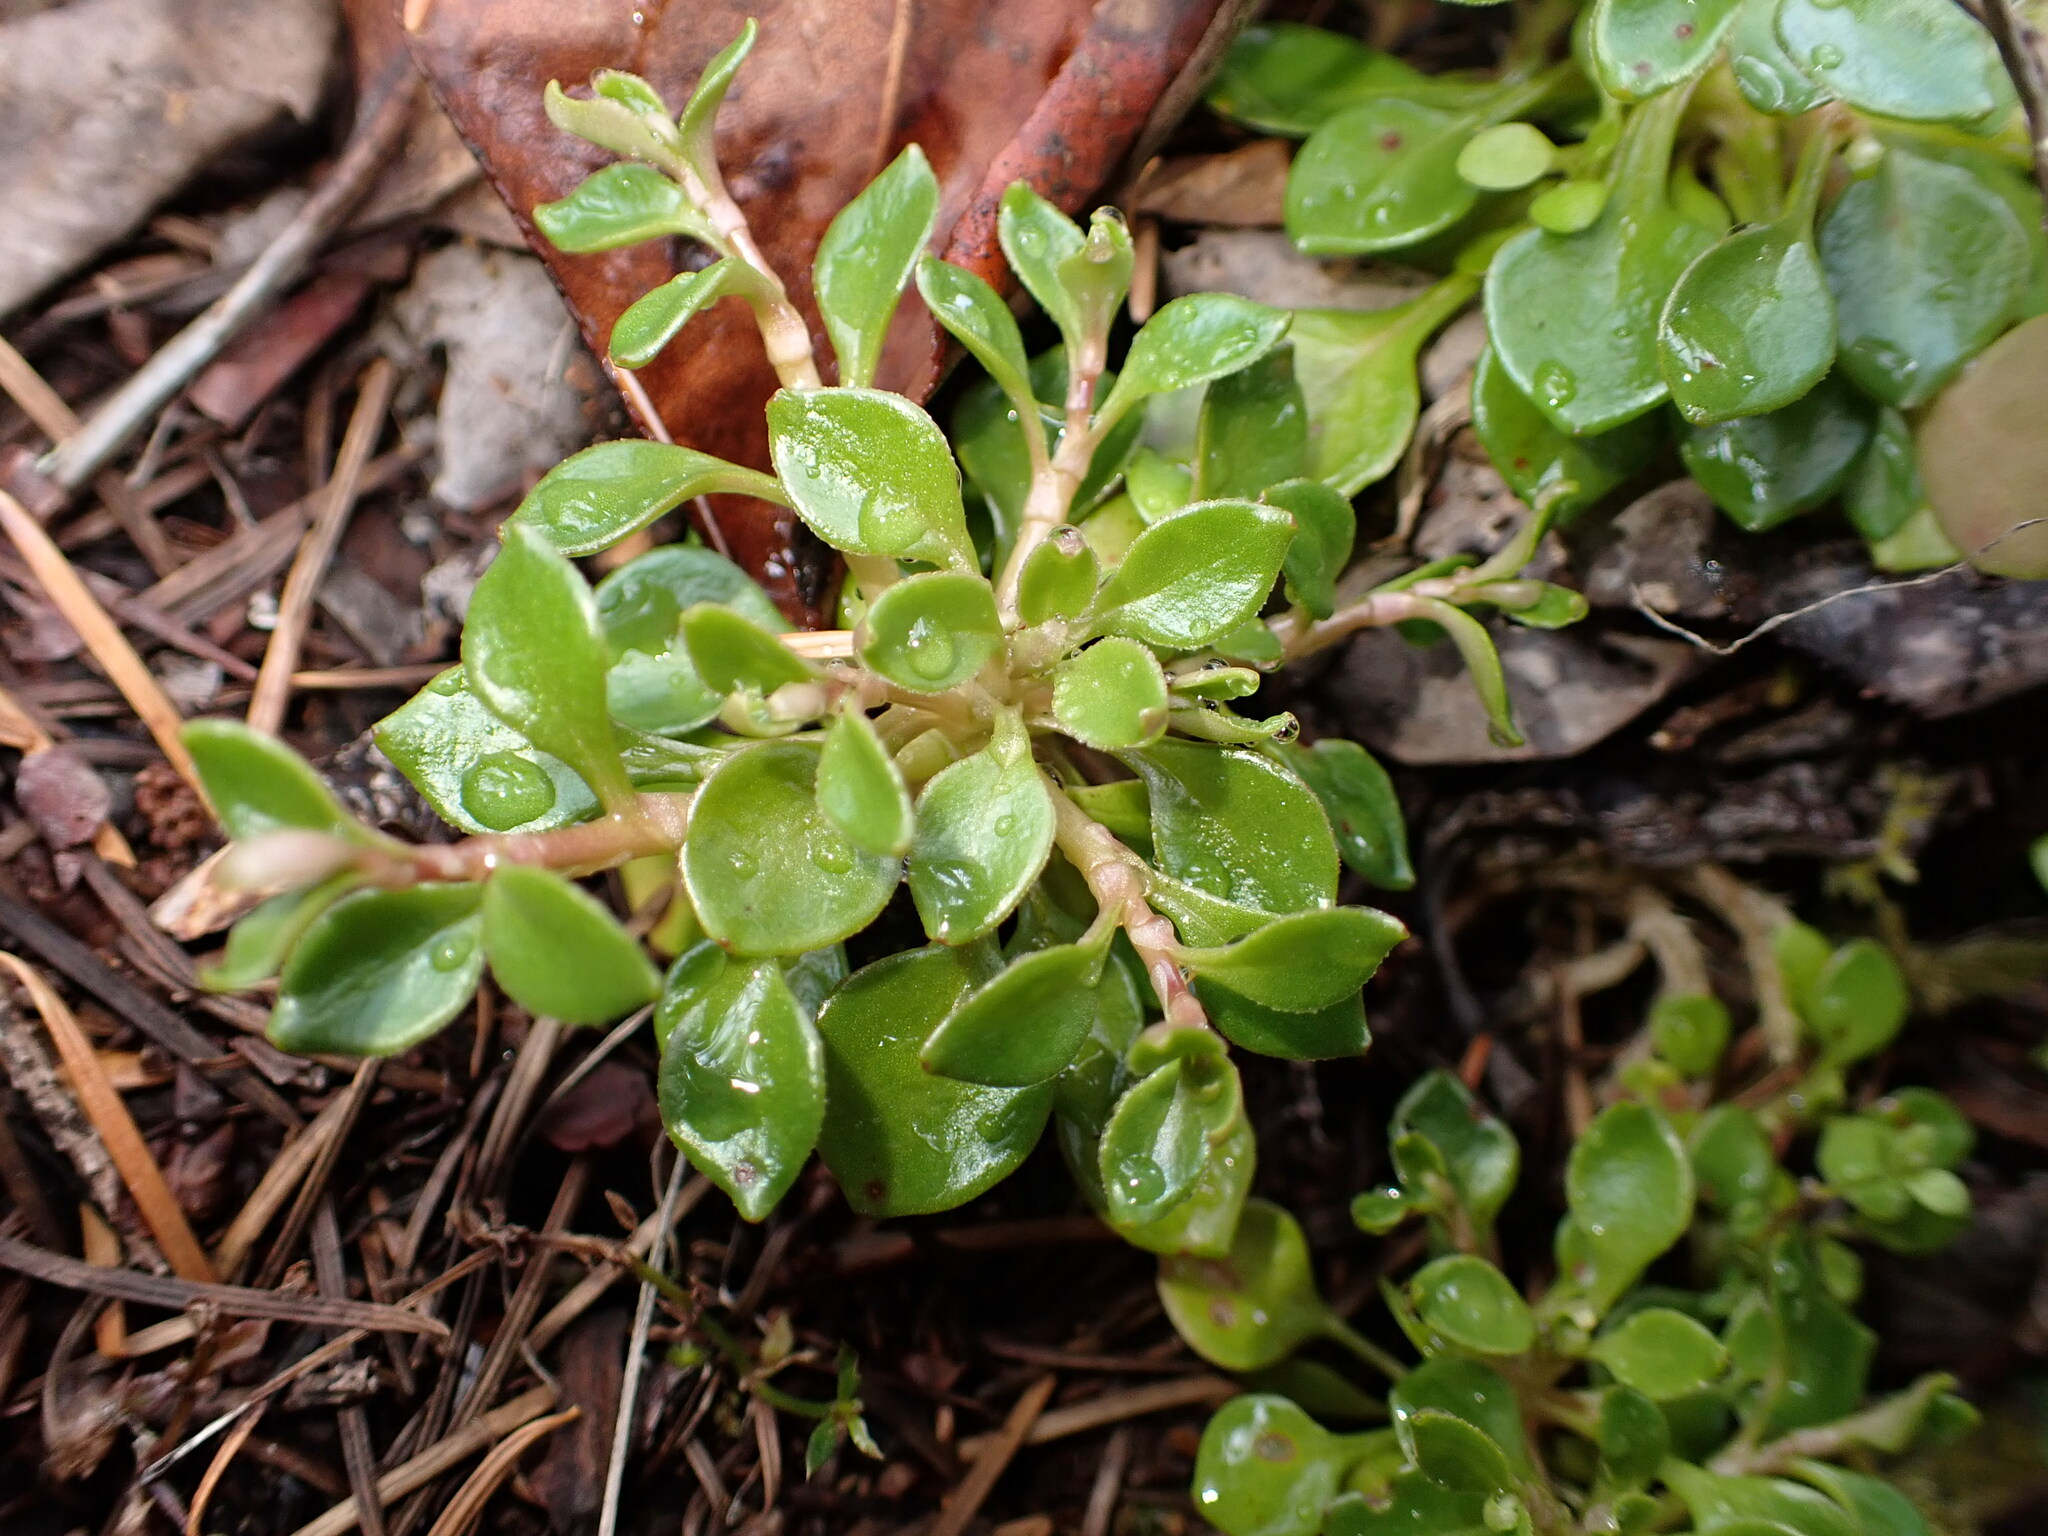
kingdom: Plantae
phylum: Tracheophyta
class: Magnoliopsida
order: Caryophyllales
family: Montiaceae
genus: Montia
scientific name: Montia parvifolia
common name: Small-leaved blinks
